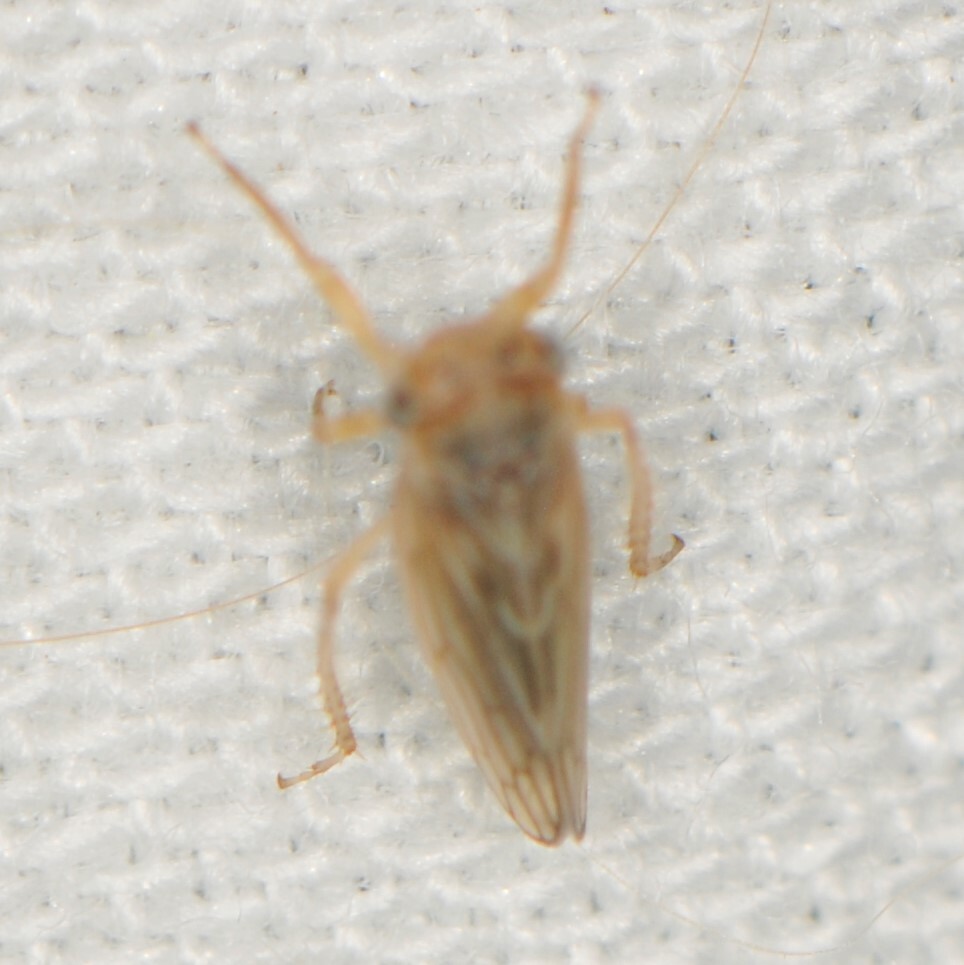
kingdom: Animalia
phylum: Arthropoda
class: Insecta
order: Hemiptera
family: Cicadellidae
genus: Ceratagallia
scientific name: Ceratagallia
